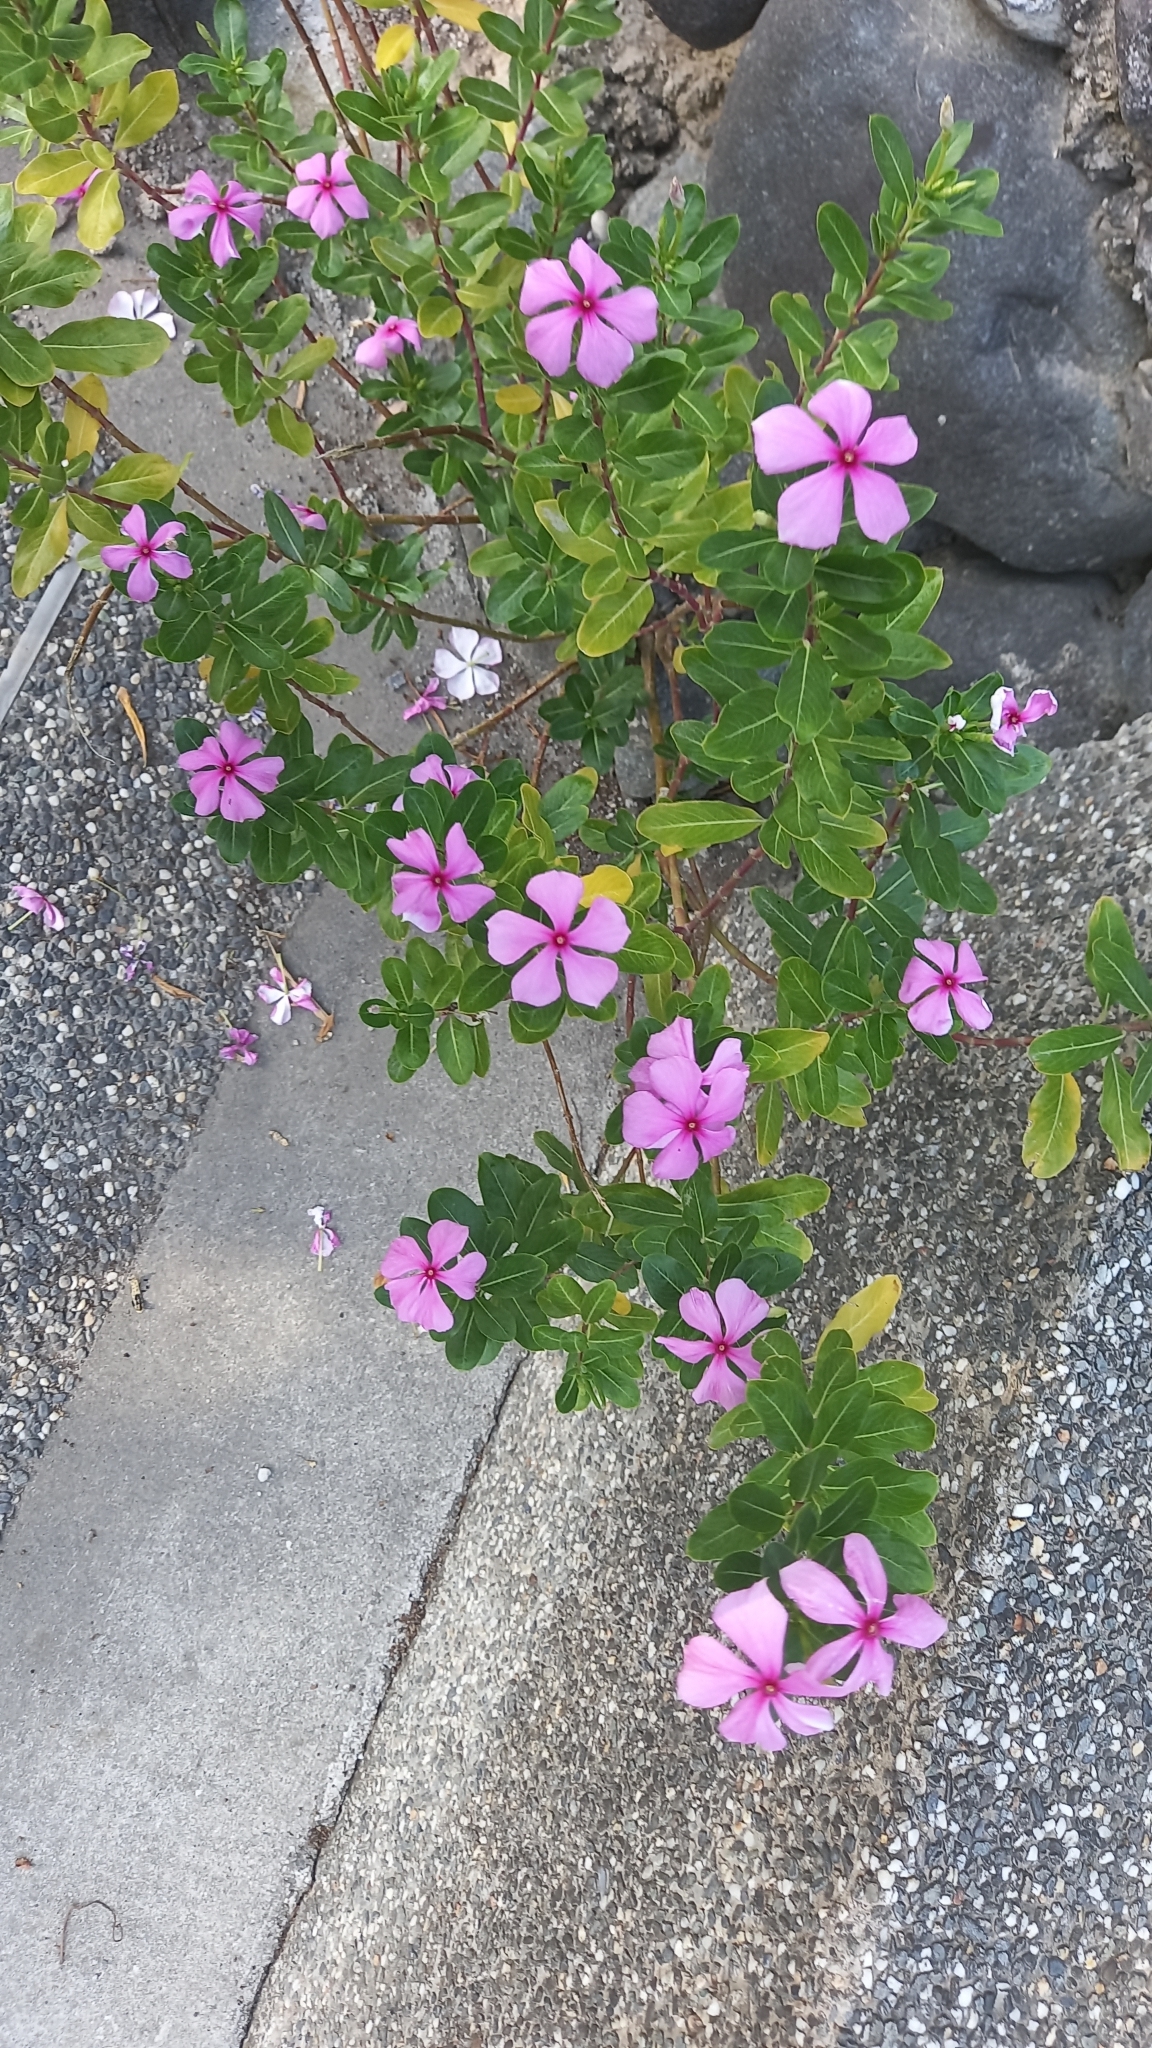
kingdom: Plantae
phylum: Tracheophyta
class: Magnoliopsida
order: Gentianales
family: Apocynaceae
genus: Catharanthus
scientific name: Catharanthus roseus
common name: Madagascar periwinkle
